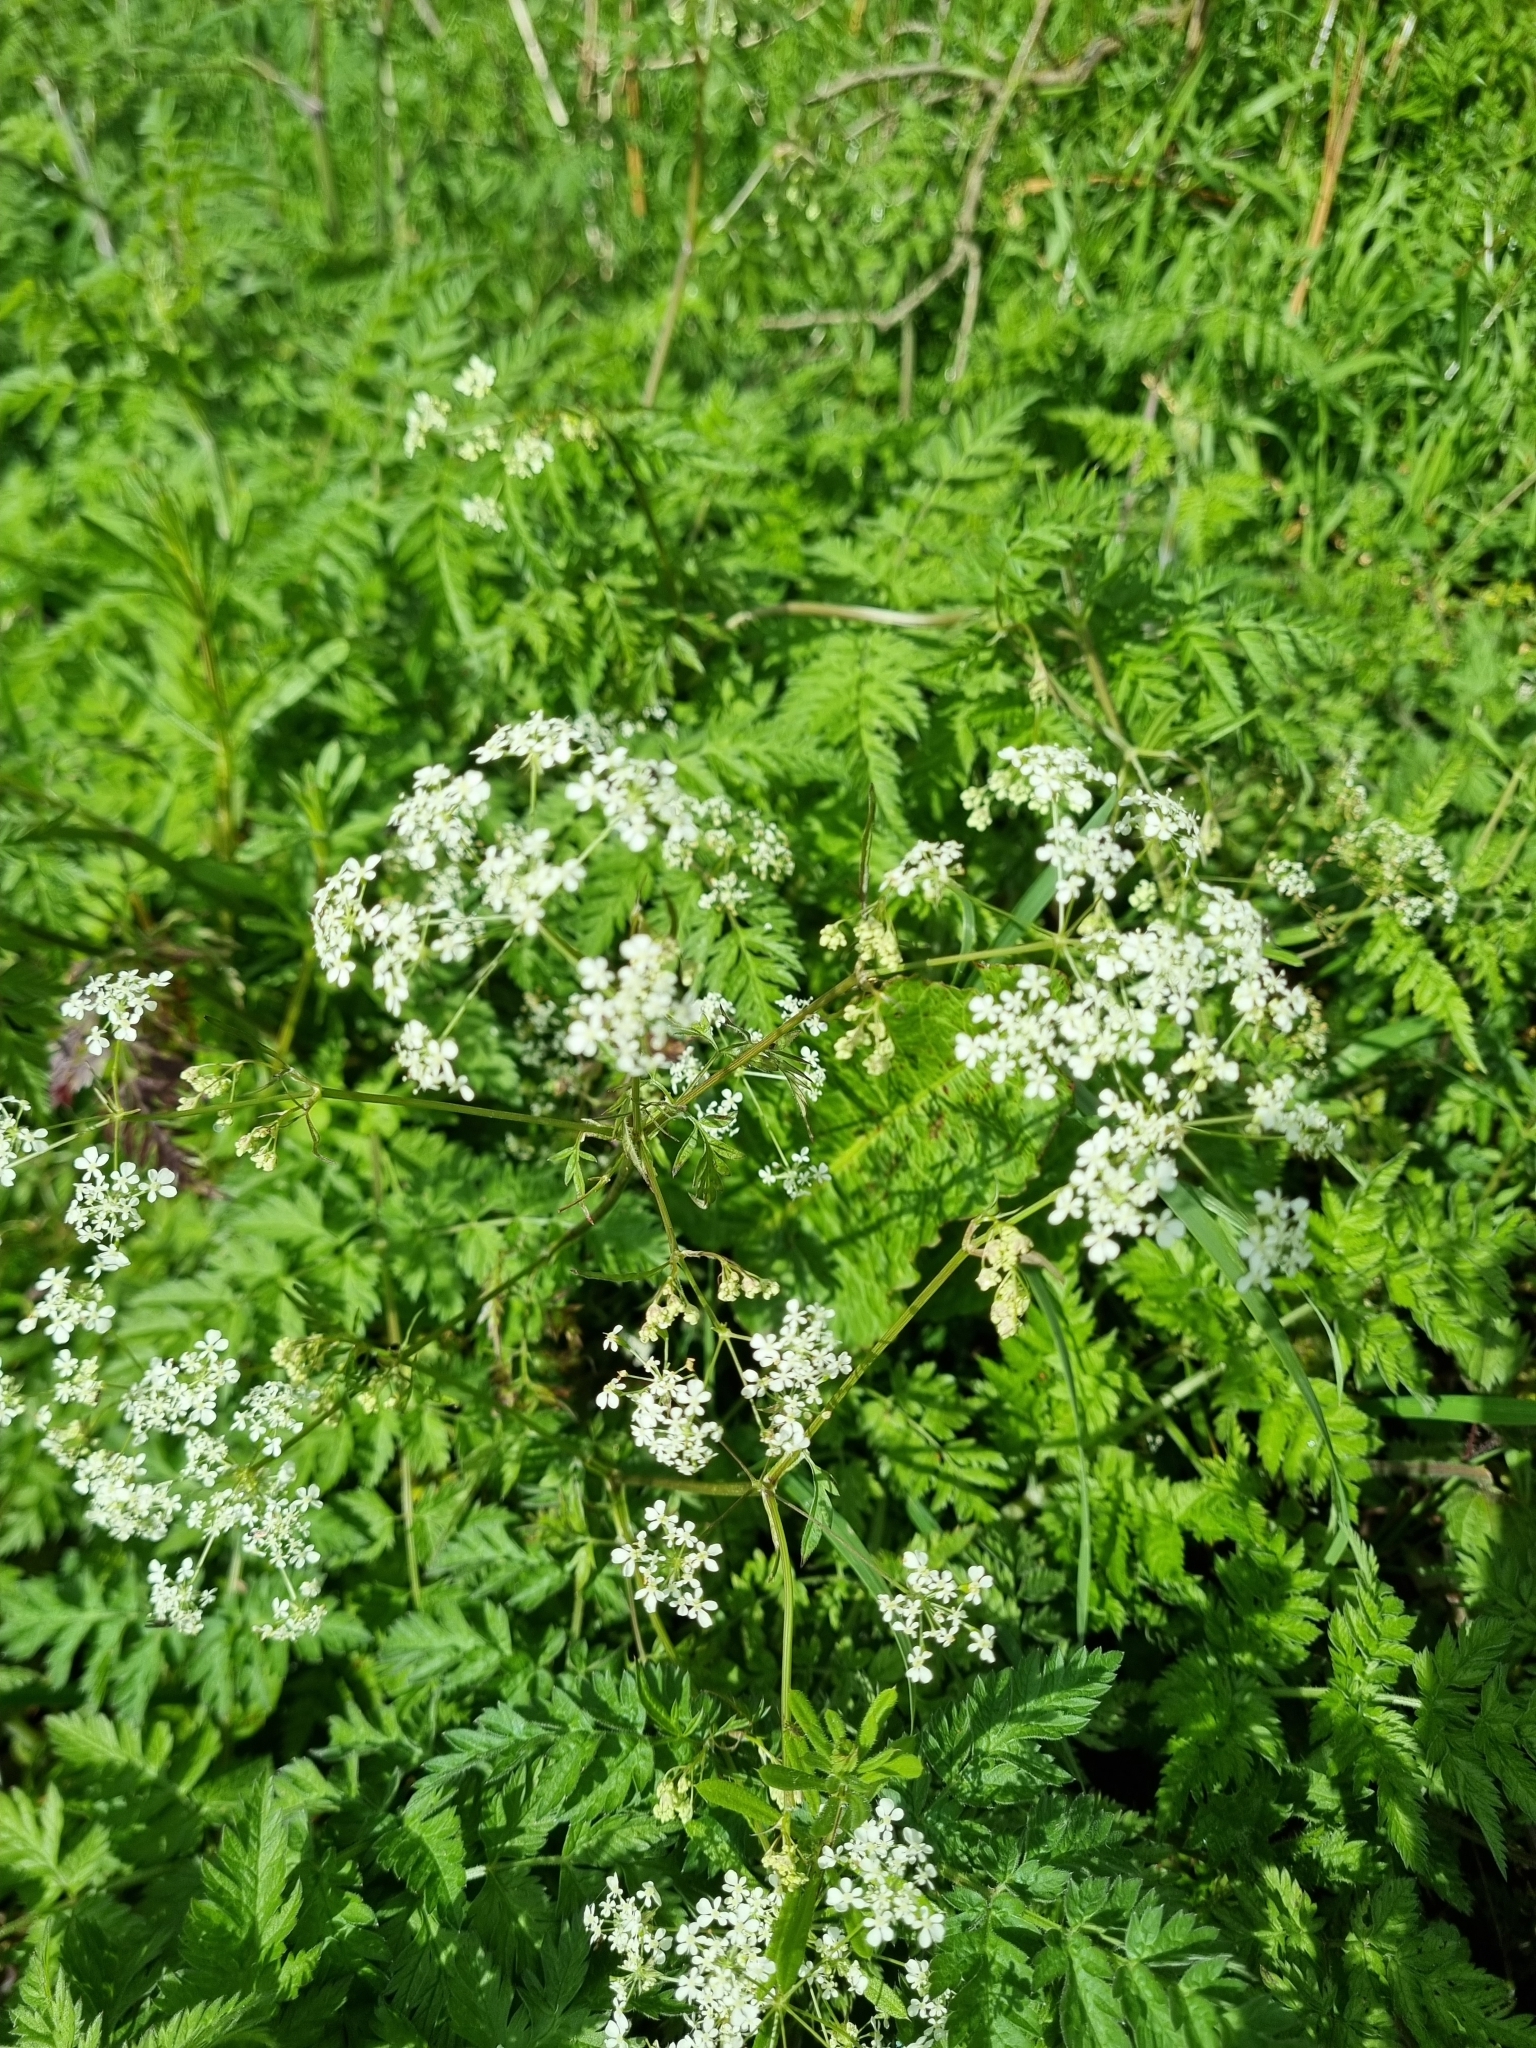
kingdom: Plantae
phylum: Tracheophyta
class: Magnoliopsida
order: Apiales
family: Apiaceae
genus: Anthriscus
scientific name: Anthriscus sylvestris
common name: Cow parsley
